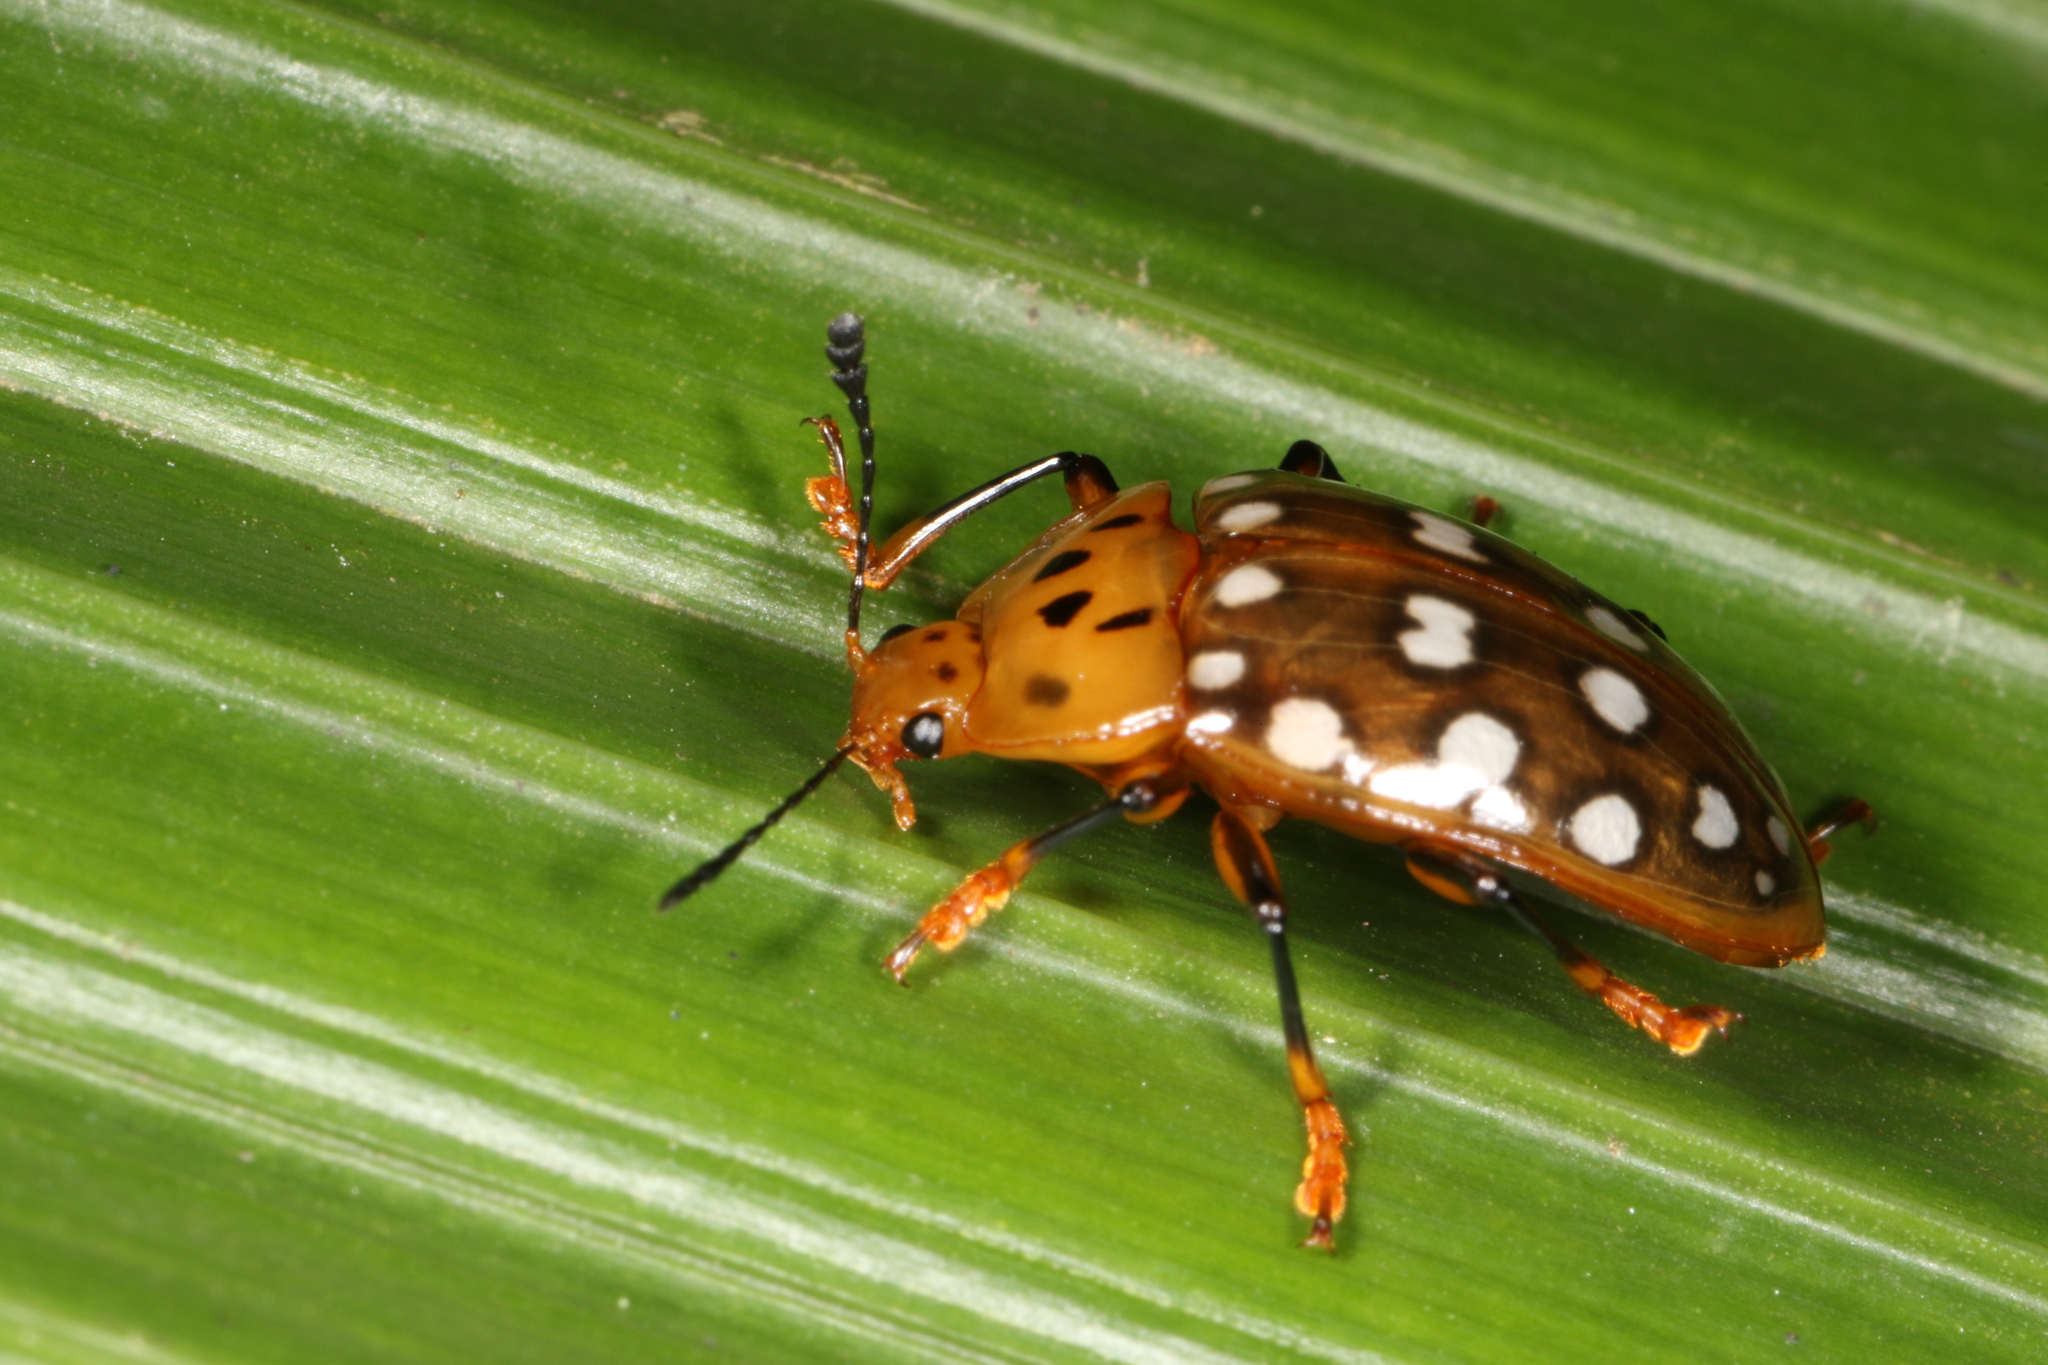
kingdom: Animalia
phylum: Arthropoda
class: Insecta
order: Coleoptera
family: Erotylidae
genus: Iphiclus
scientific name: Iphiclus
